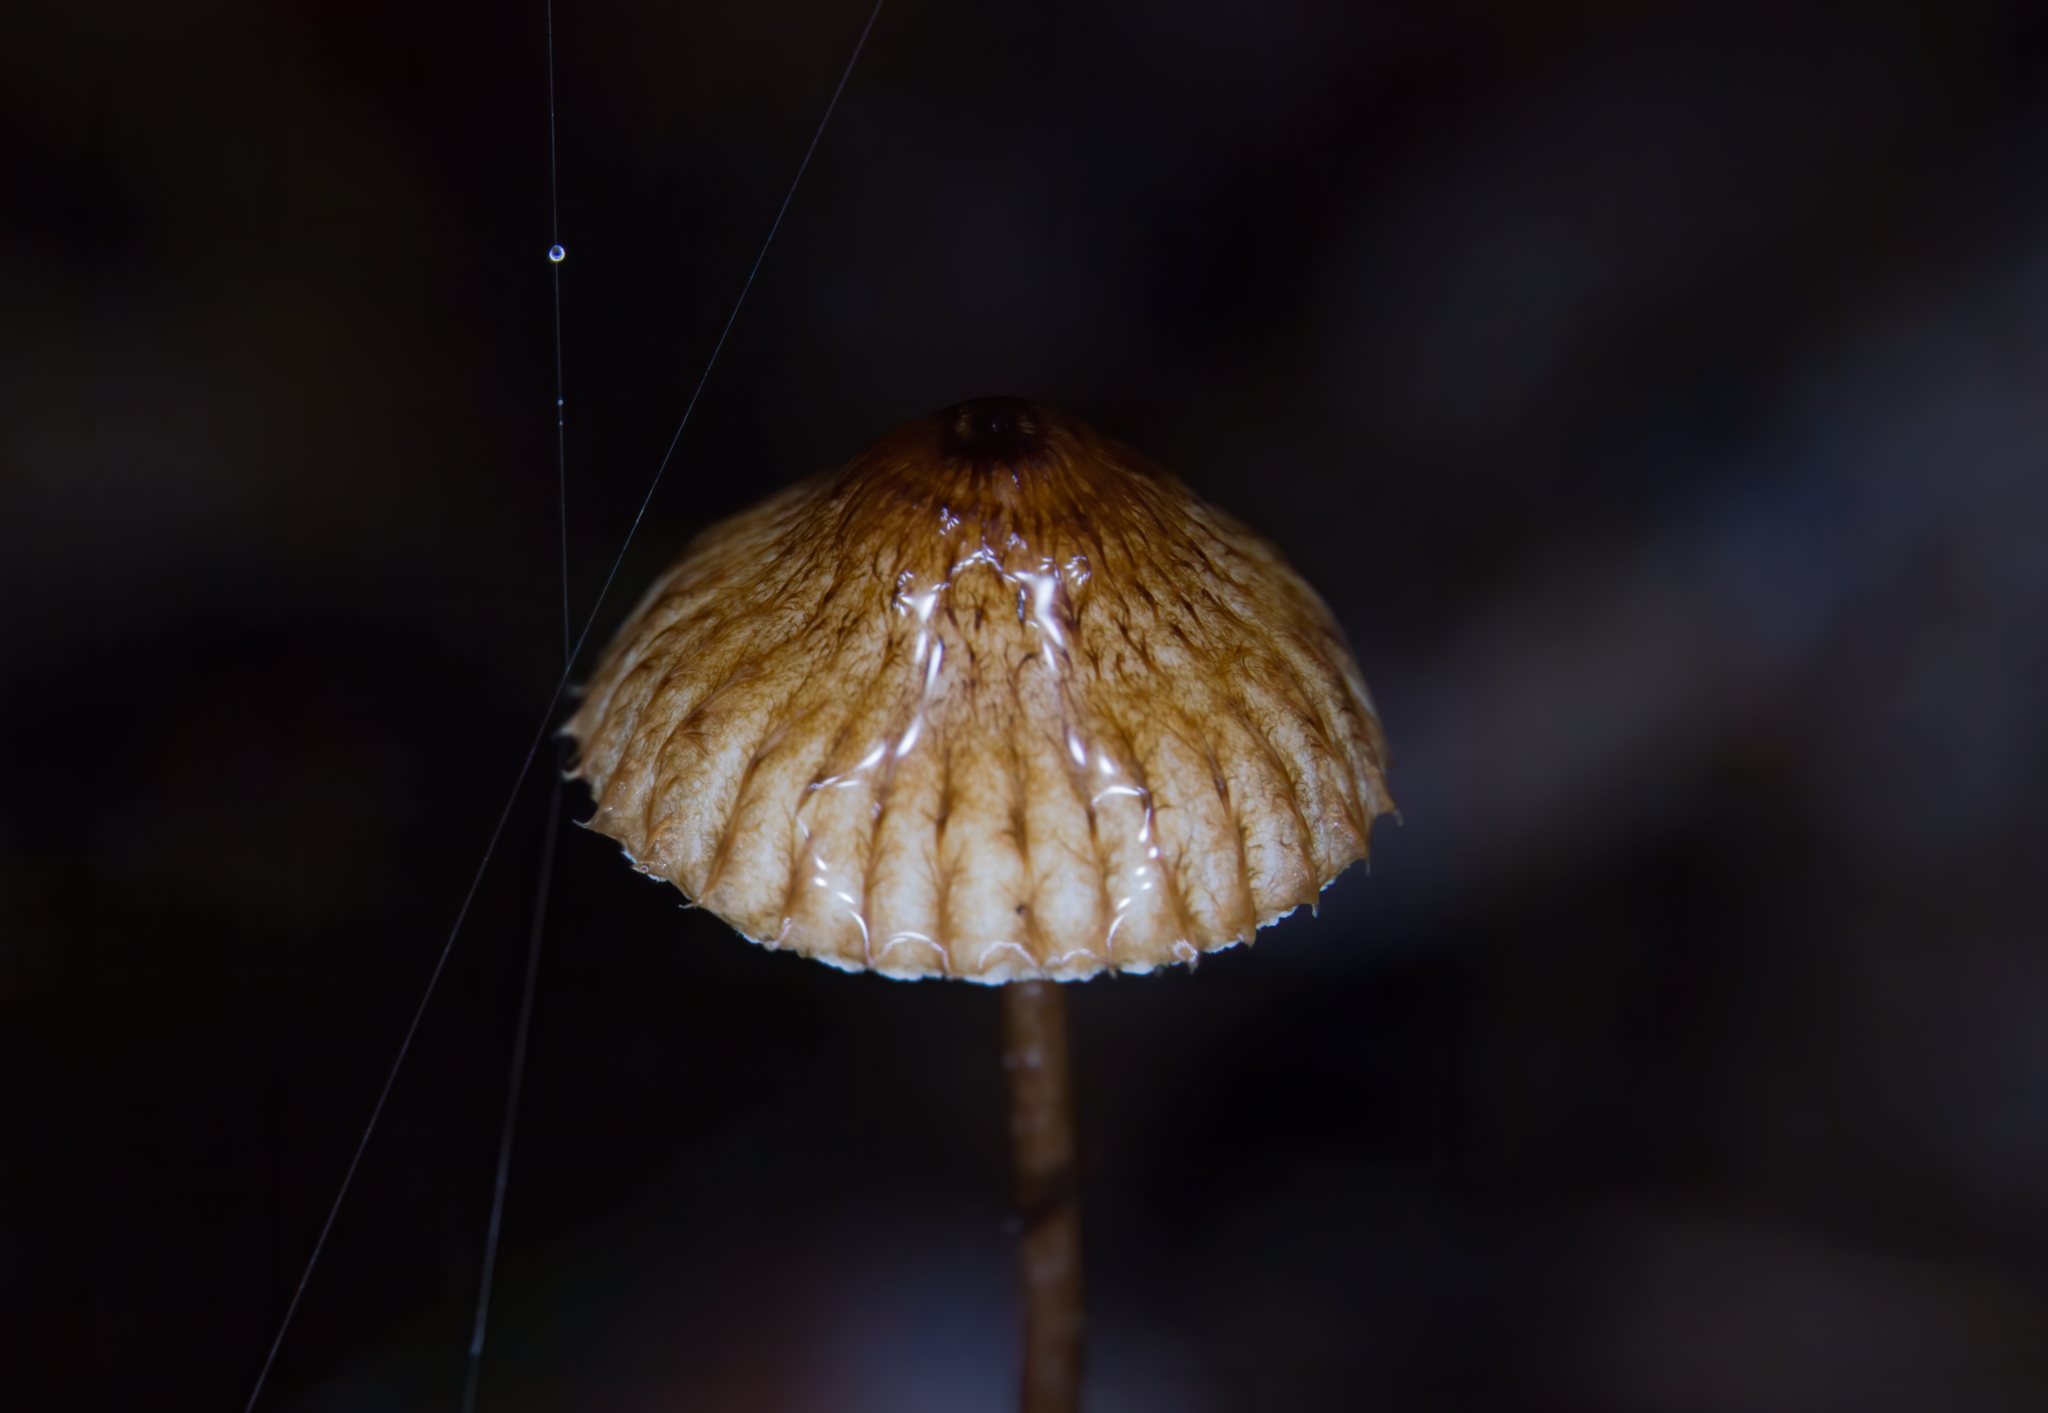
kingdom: Fungi
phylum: Basidiomycota
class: Agaricomycetes
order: Agaricales
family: Marasmiaceae
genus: Crinipellis
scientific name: Crinipellis procera
